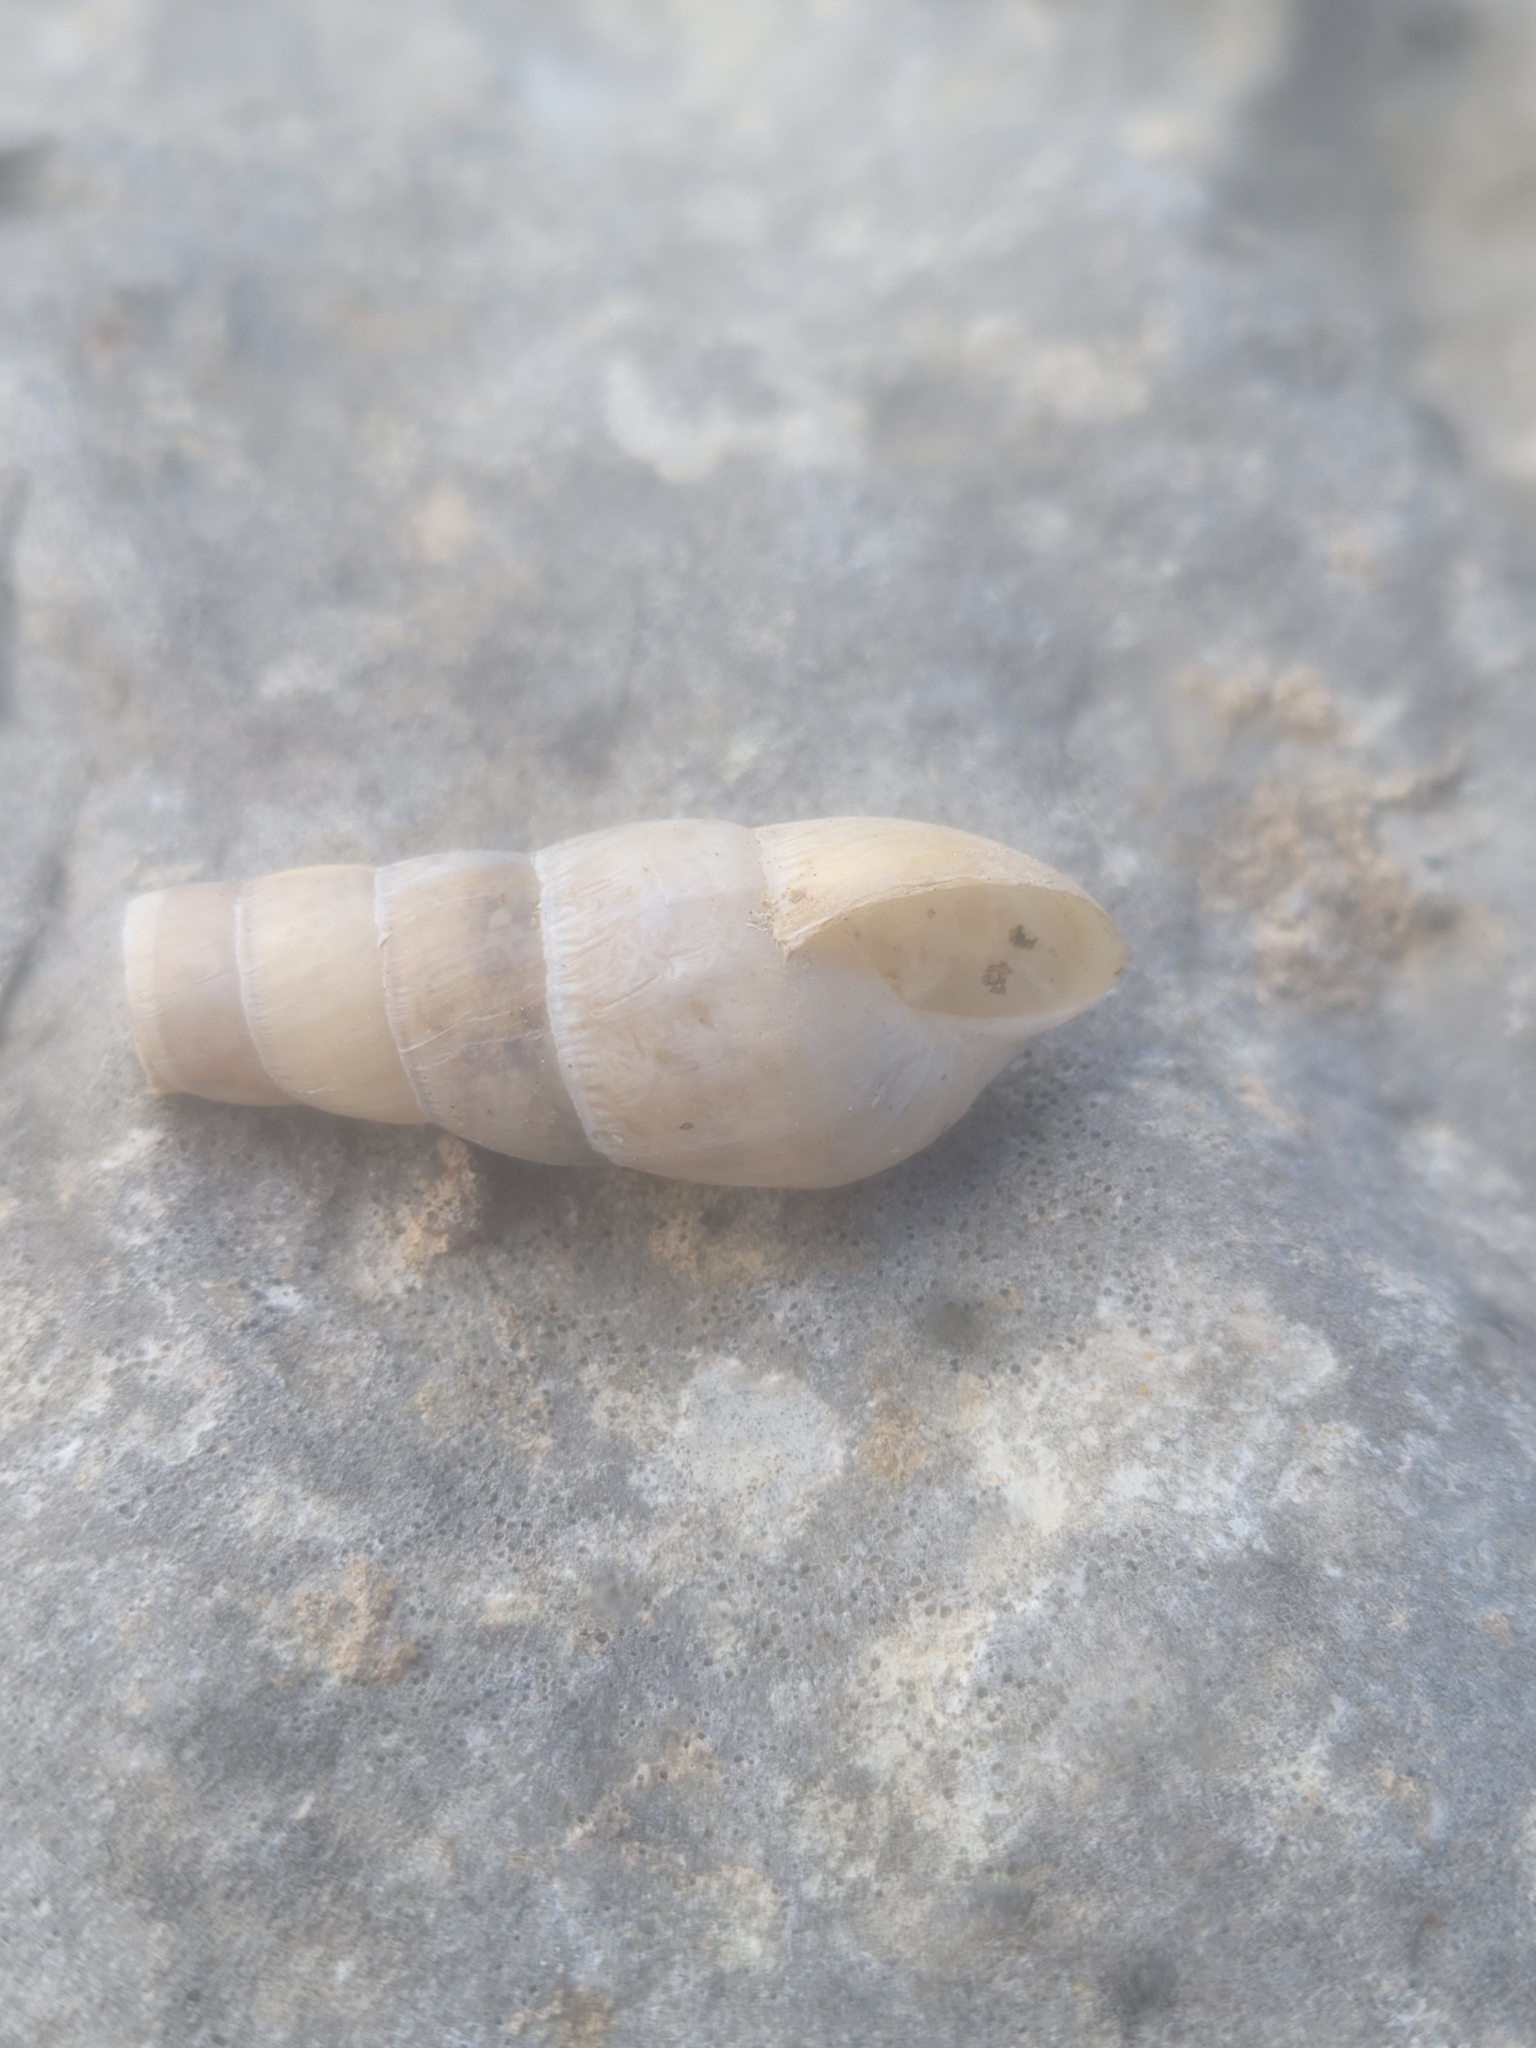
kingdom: Animalia
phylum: Mollusca
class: Gastropoda
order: Stylommatophora
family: Achatinidae
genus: Rumina
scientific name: Rumina decollata
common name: Decollate snail
